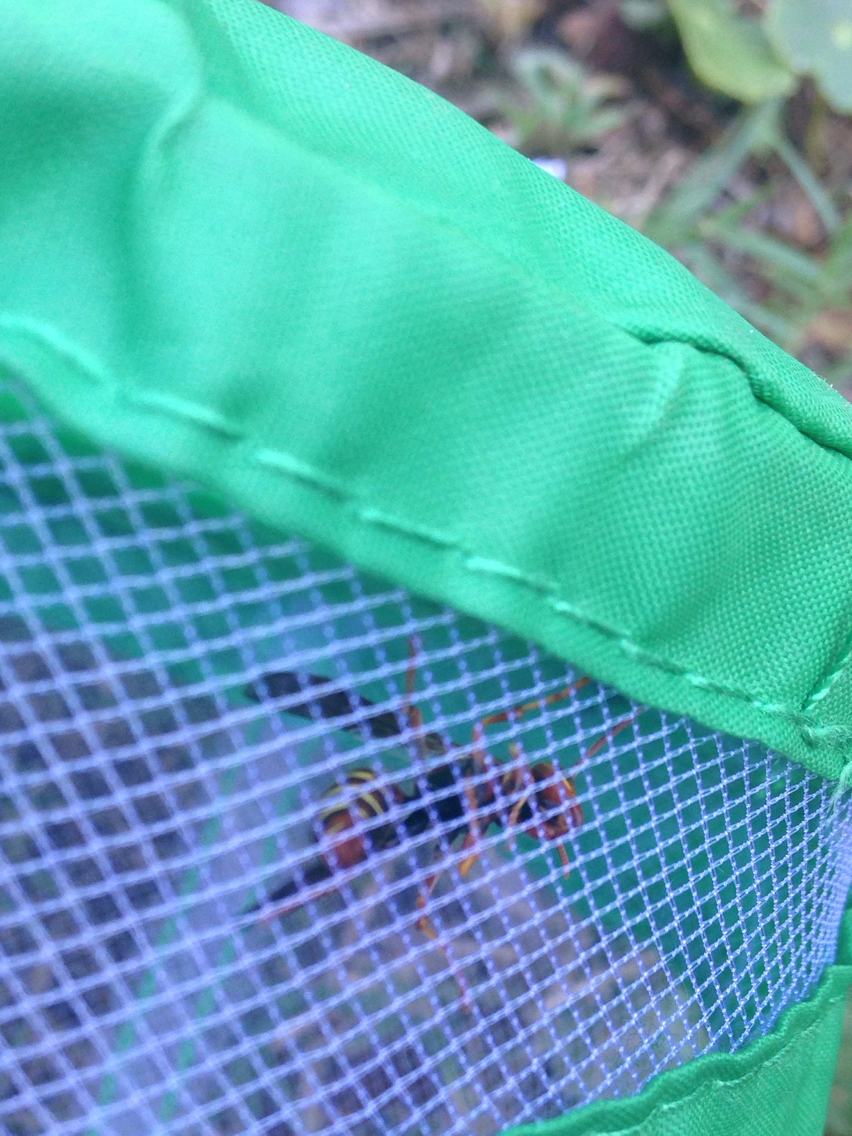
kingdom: Animalia
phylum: Arthropoda
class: Insecta
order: Hymenoptera
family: Vespidae
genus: Fuscopolistes
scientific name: Fuscopolistes
